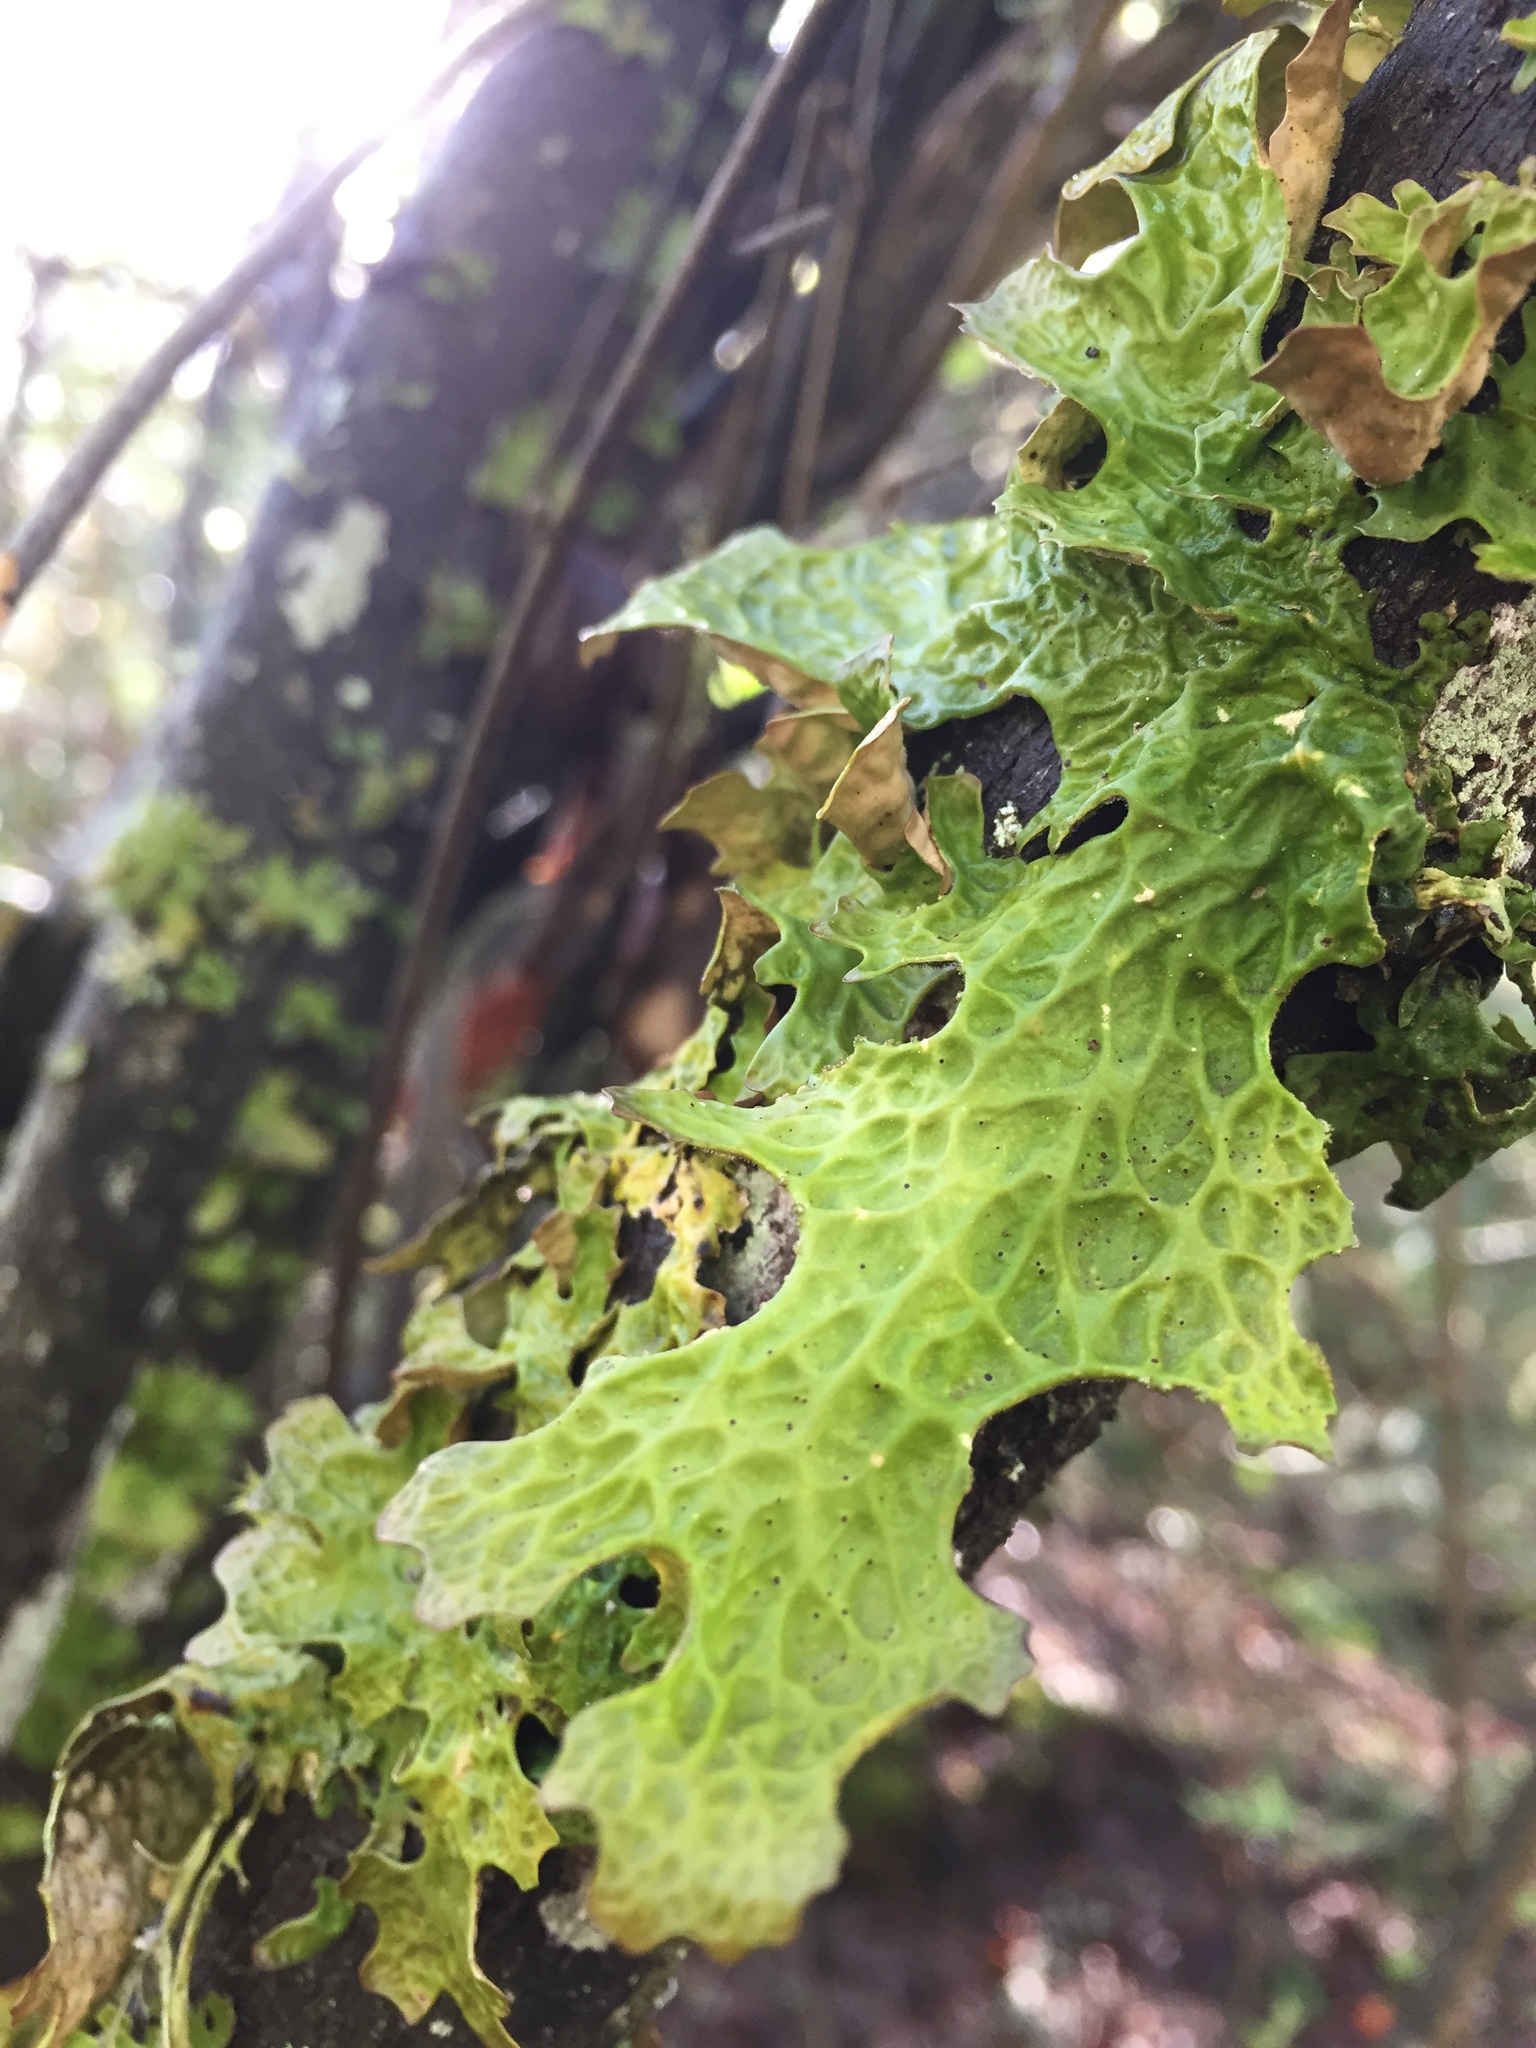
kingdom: Fungi
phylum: Ascomycota
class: Lecanoromycetes
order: Peltigerales
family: Lobariaceae
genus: Lobaria
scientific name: Lobaria pulmonaria
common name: Lungwort
